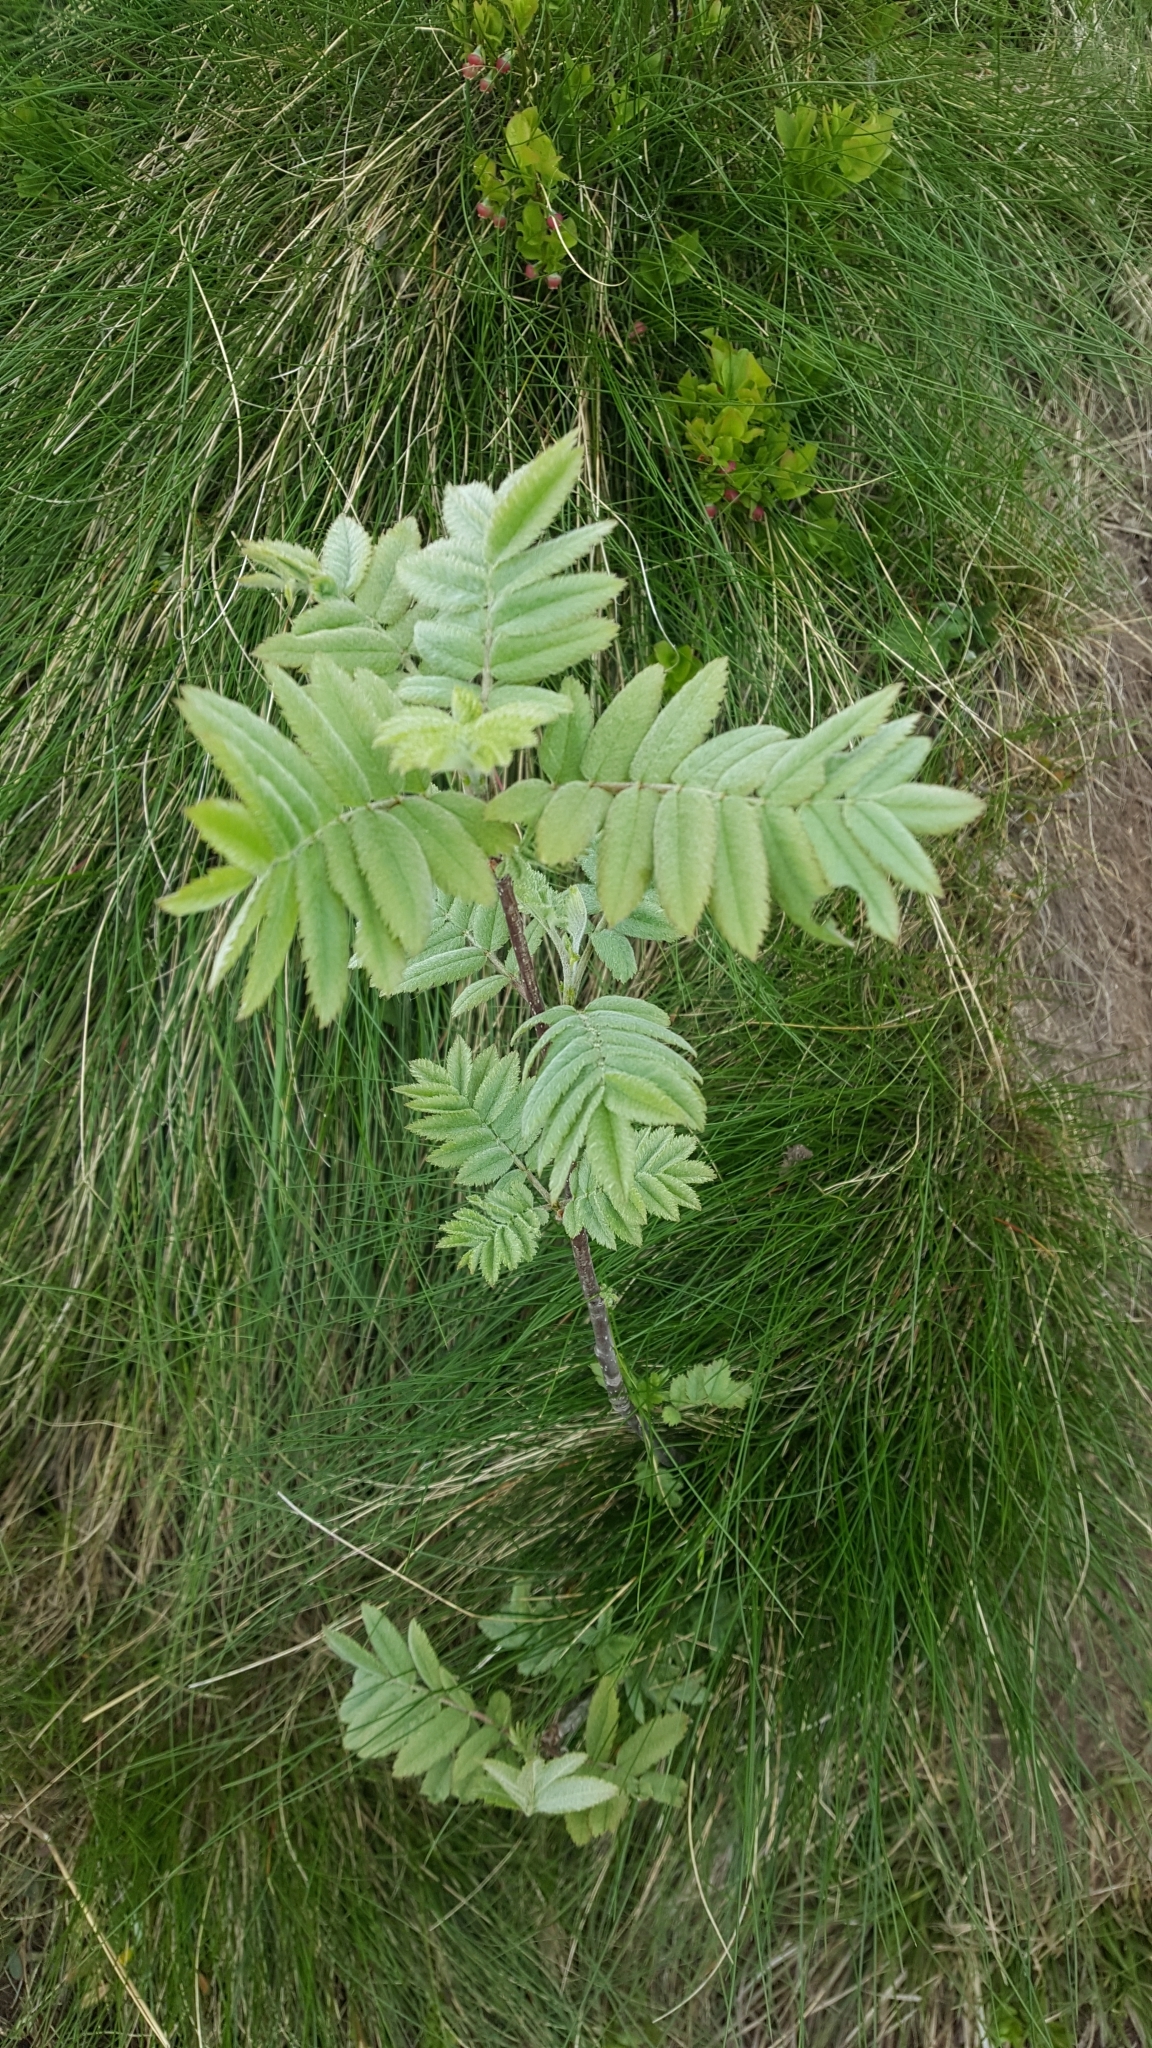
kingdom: Plantae
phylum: Tracheophyta
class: Magnoliopsida
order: Rosales
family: Rosaceae
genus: Sorbus
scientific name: Sorbus aucuparia
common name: Rowan
